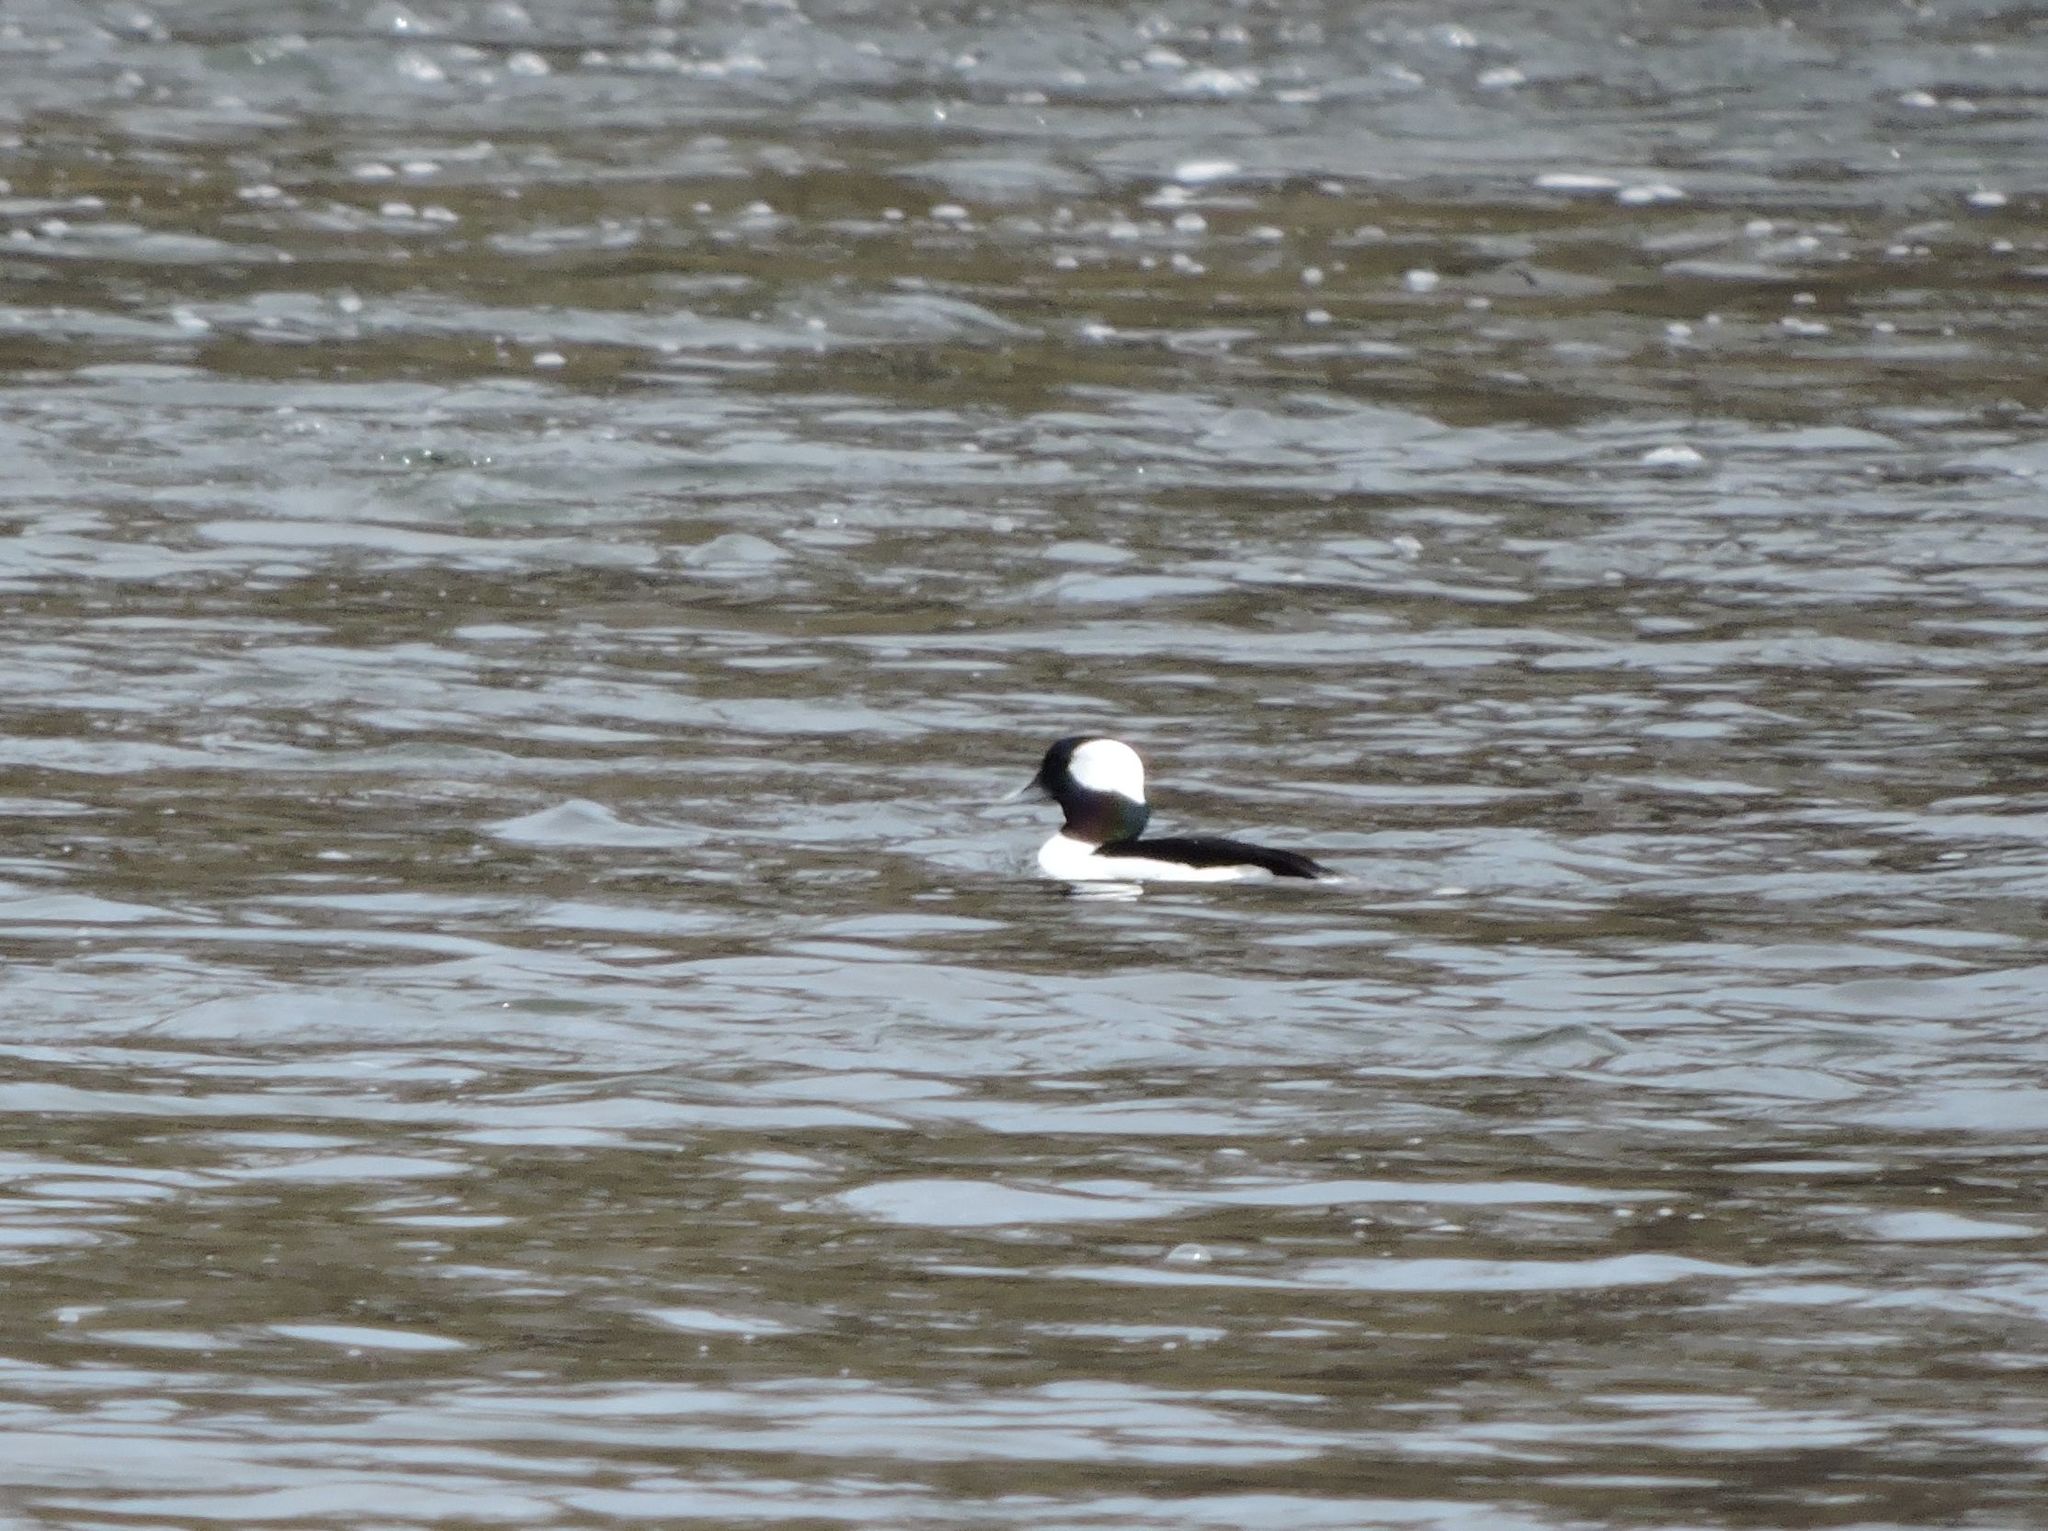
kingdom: Animalia
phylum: Chordata
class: Aves
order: Anseriformes
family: Anatidae
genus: Bucephala
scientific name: Bucephala albeola
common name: Bufflehead
